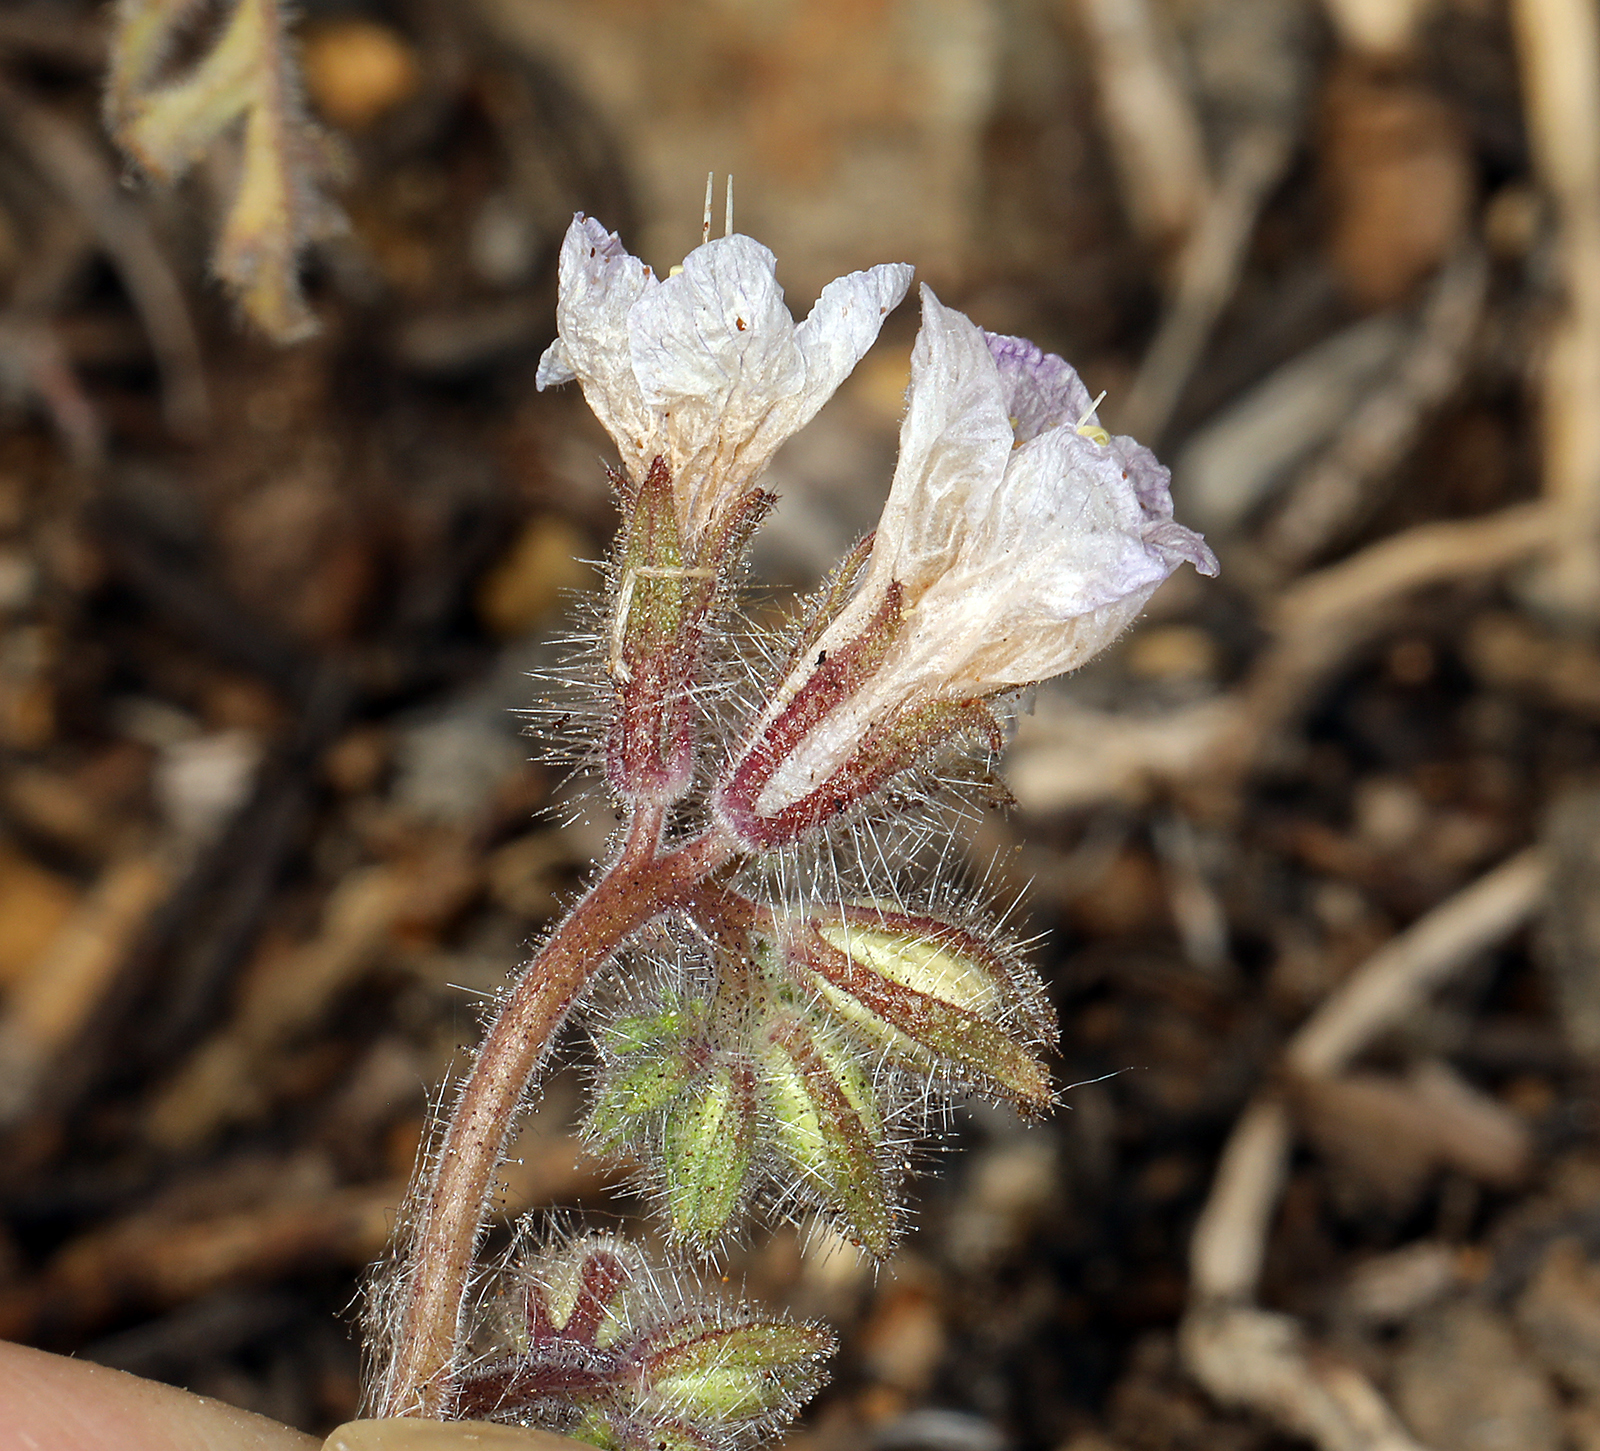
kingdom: Plantae
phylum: Tracheophyta
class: Magnoliopsida
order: Boraginales
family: Hydrophyllaceae
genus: Phacelia
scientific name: Phacelia vallis-mortae
